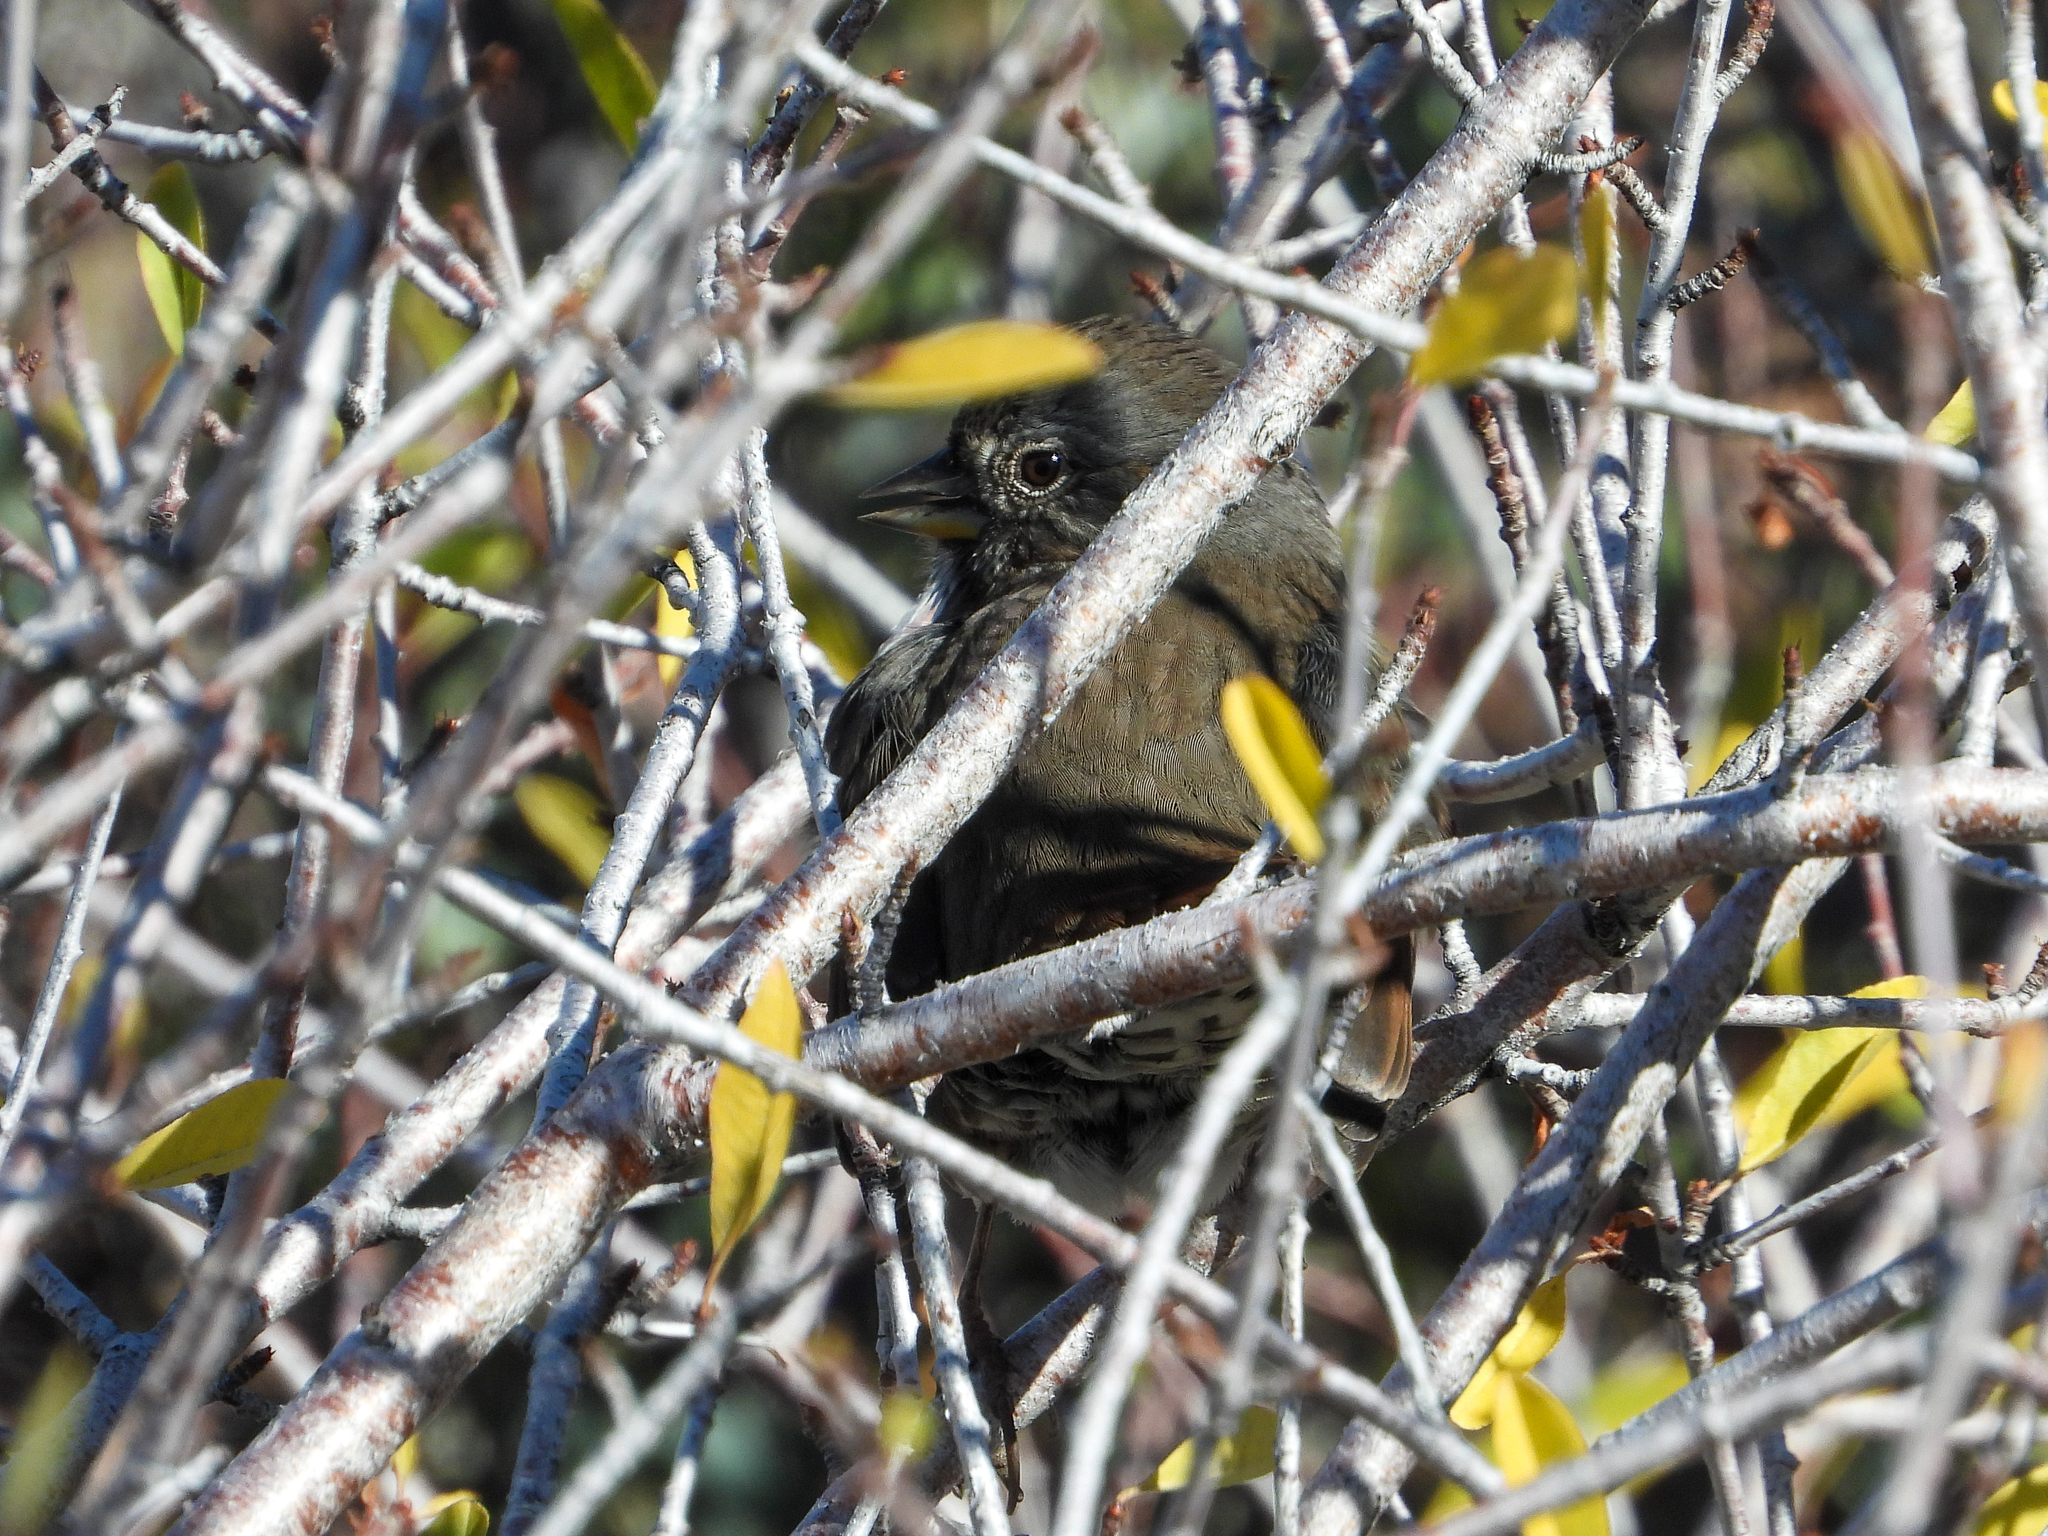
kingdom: Animalia
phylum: Chordata
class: Aves
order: Passeriformes
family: Passerellidae
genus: Passerella
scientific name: Passerella iliaca
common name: Fox sparrow
